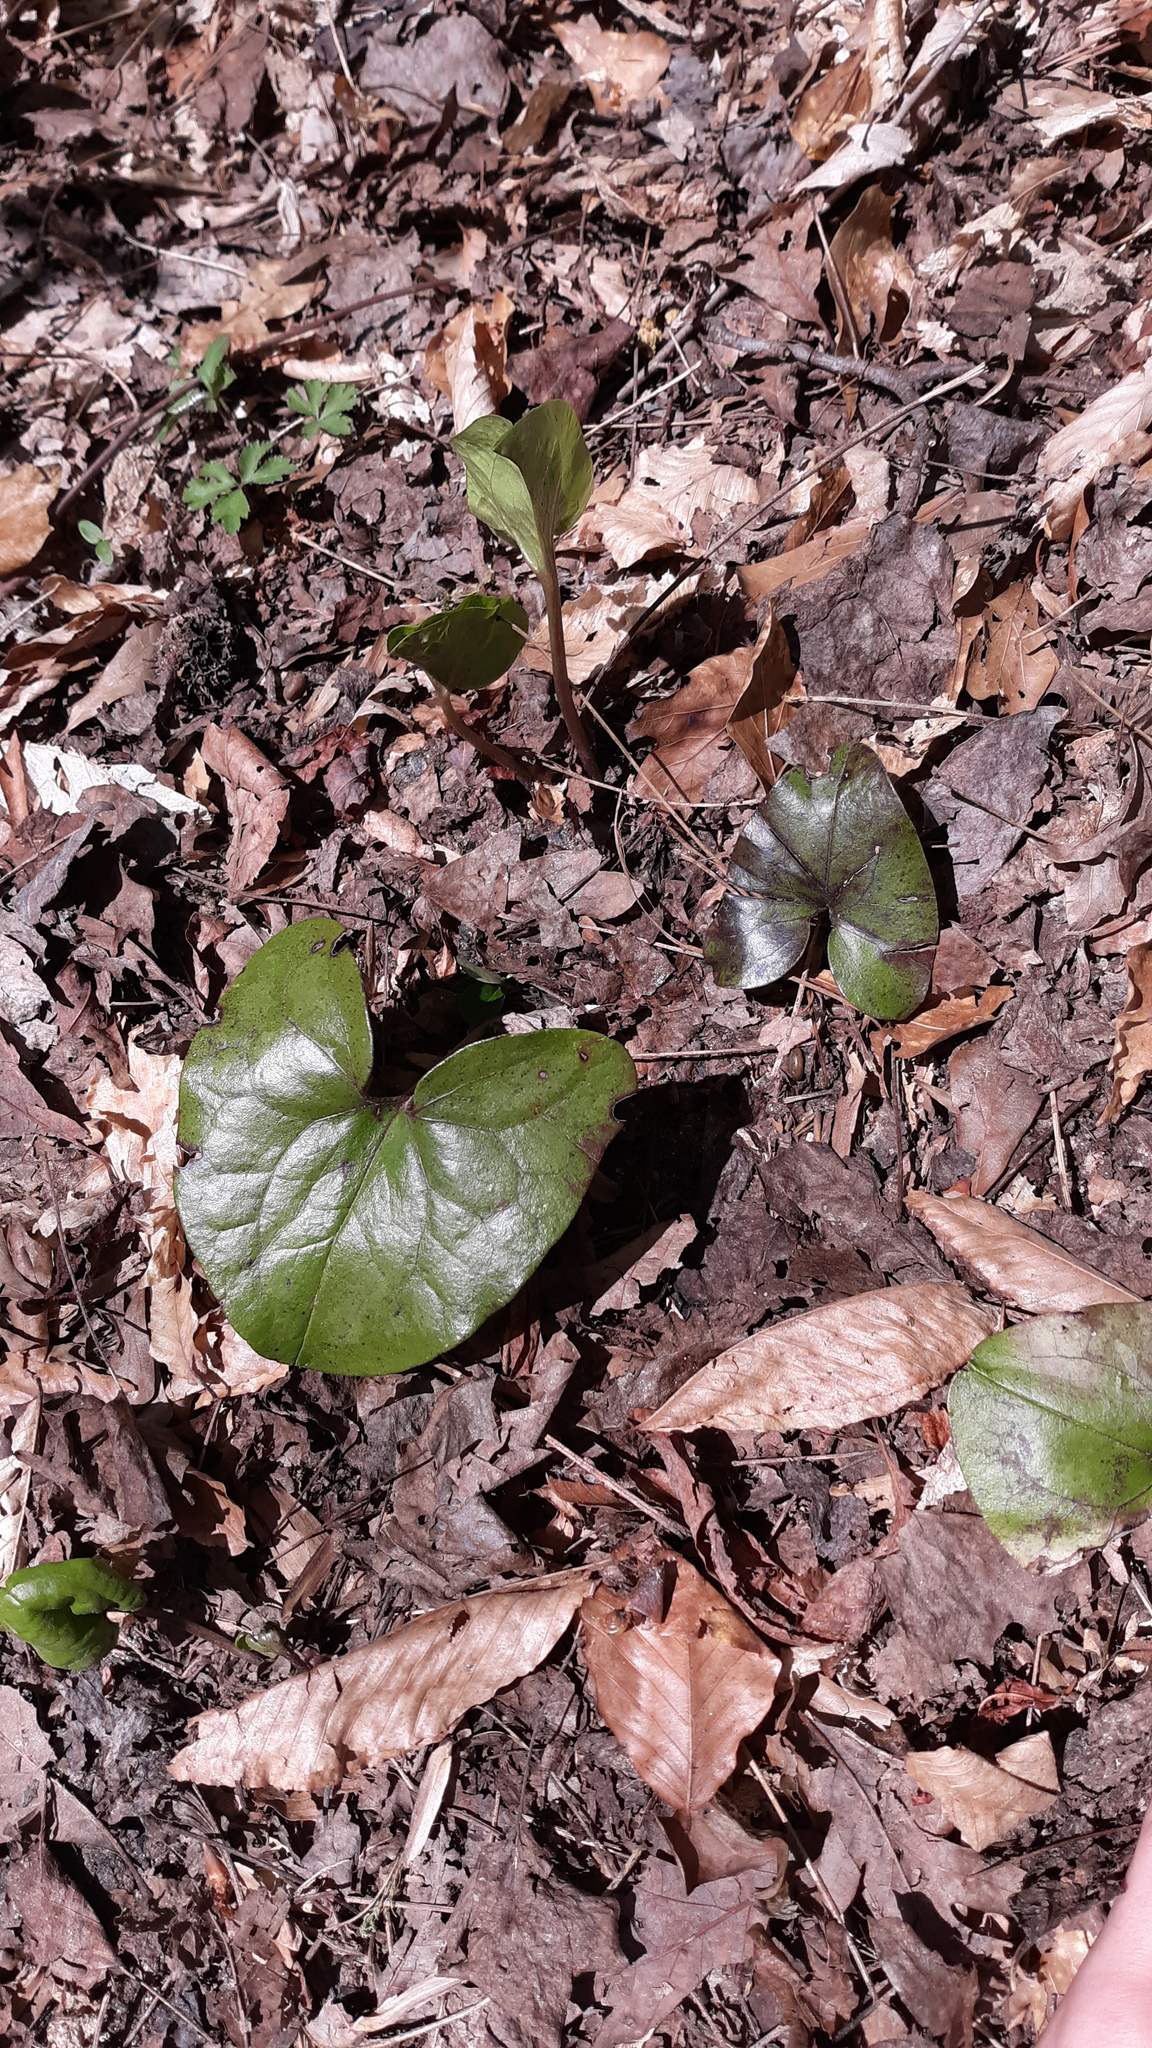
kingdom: Plantae
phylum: Tracheophyta
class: Magnoliopsida
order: Piperales
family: Aristolochiaceae
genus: Hexastylis
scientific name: Hexastylis arifolia
